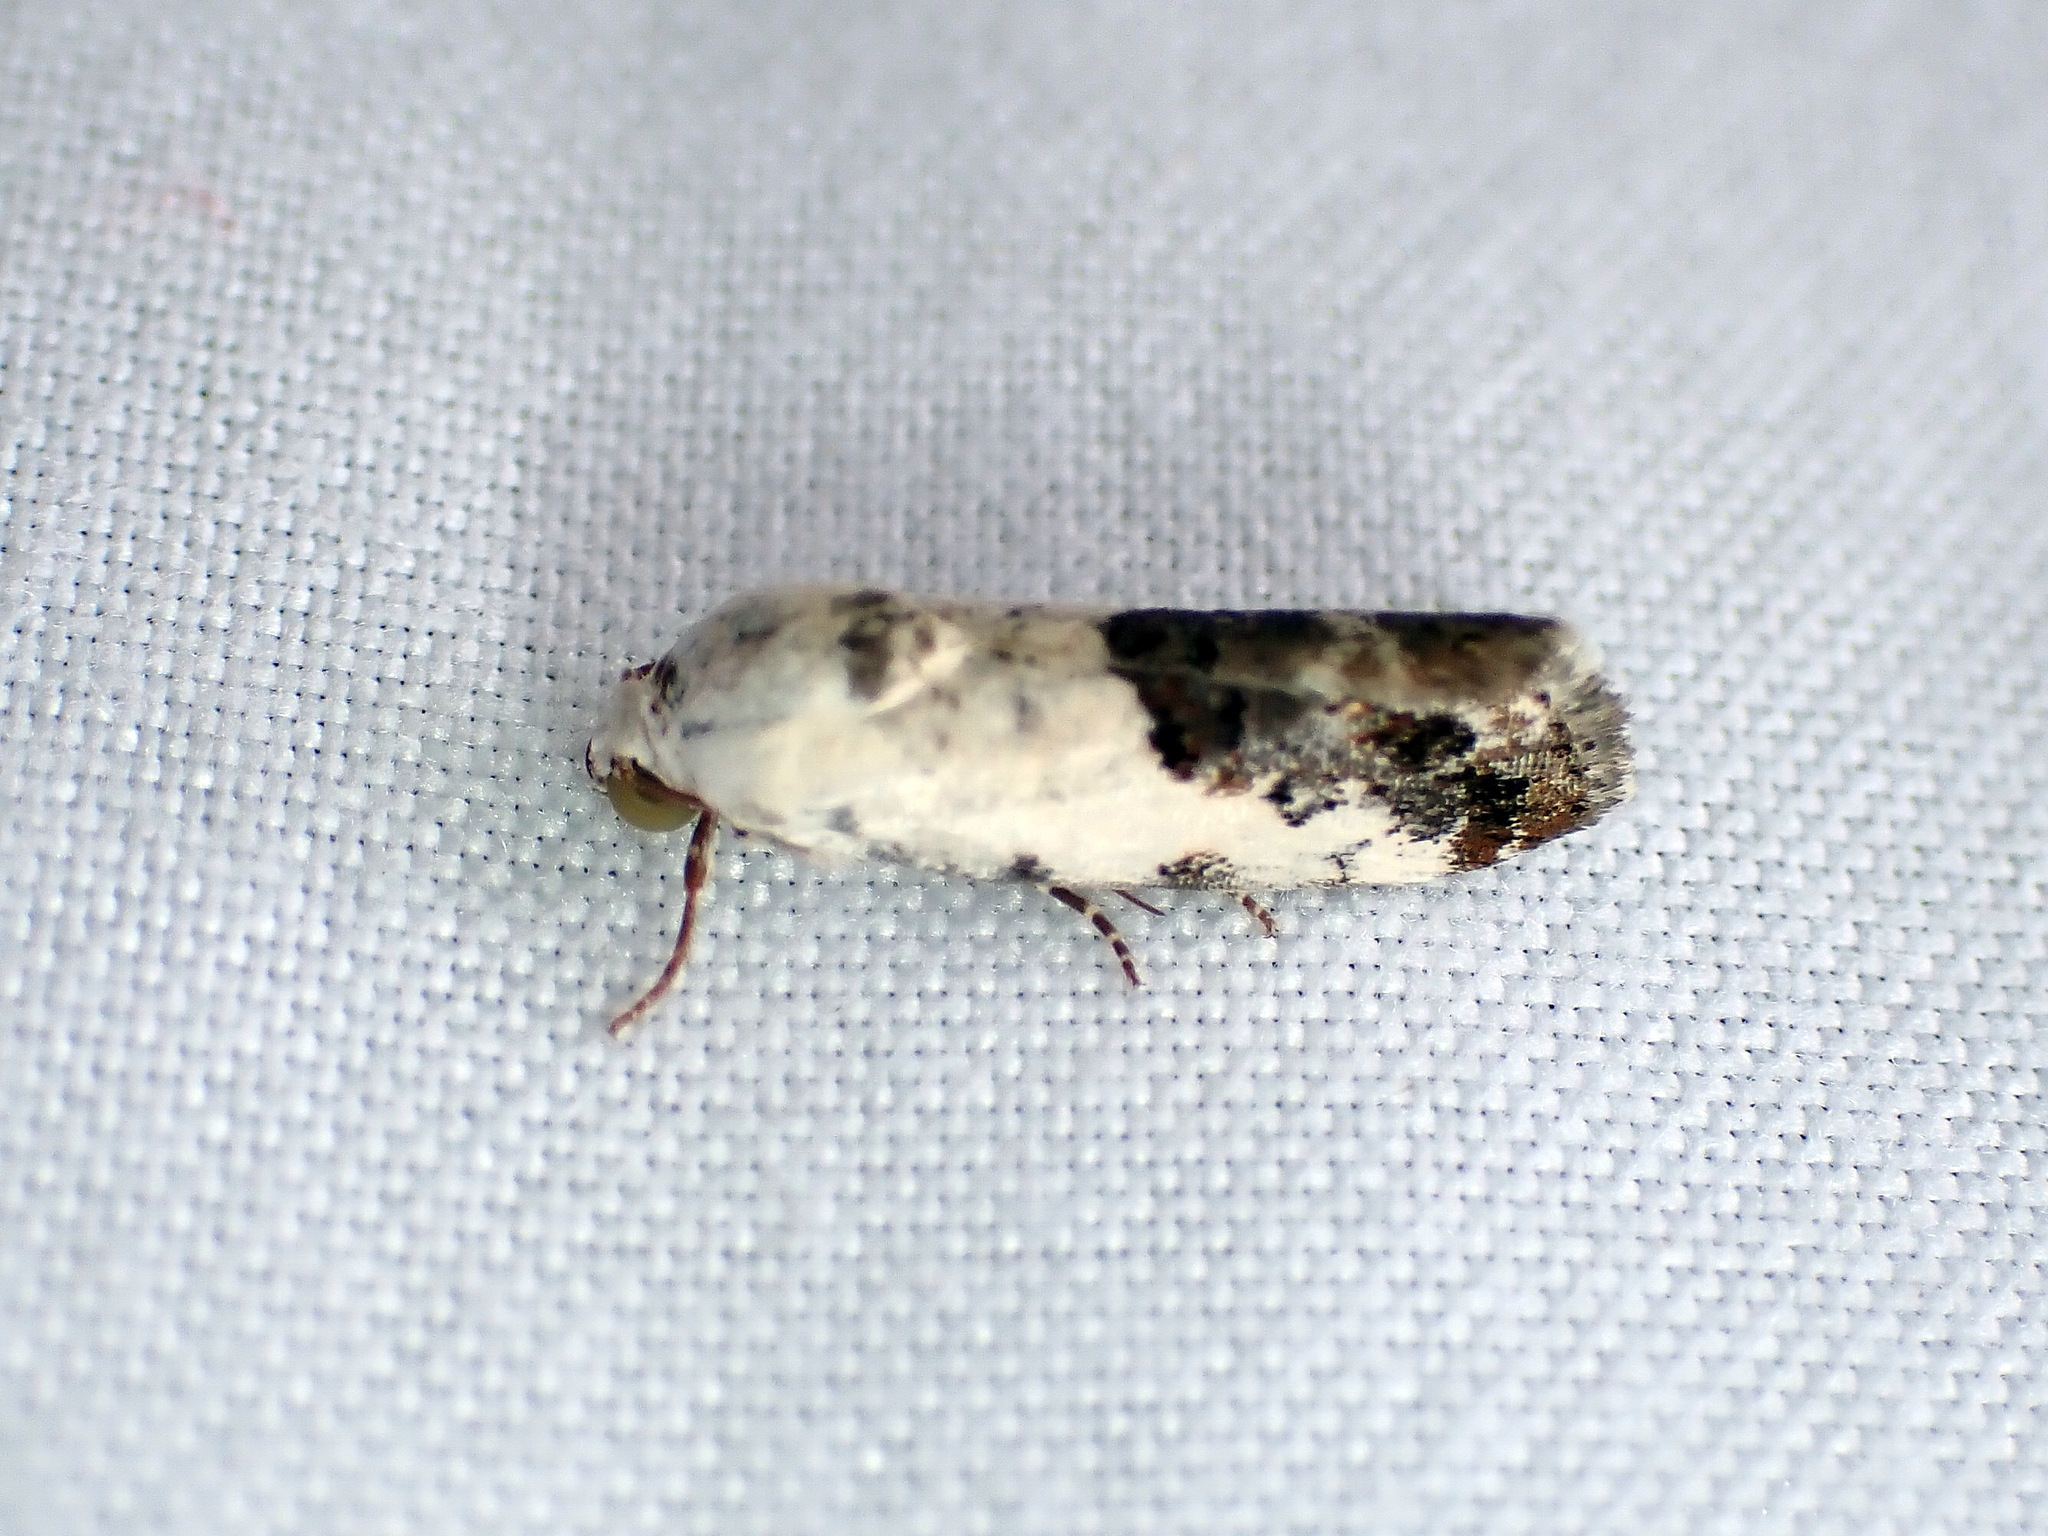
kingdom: Animalia
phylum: Arthropoda
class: Insecta
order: Lepidoptera
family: Noctuidae
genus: Acontia
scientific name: Acontia phecolisca
